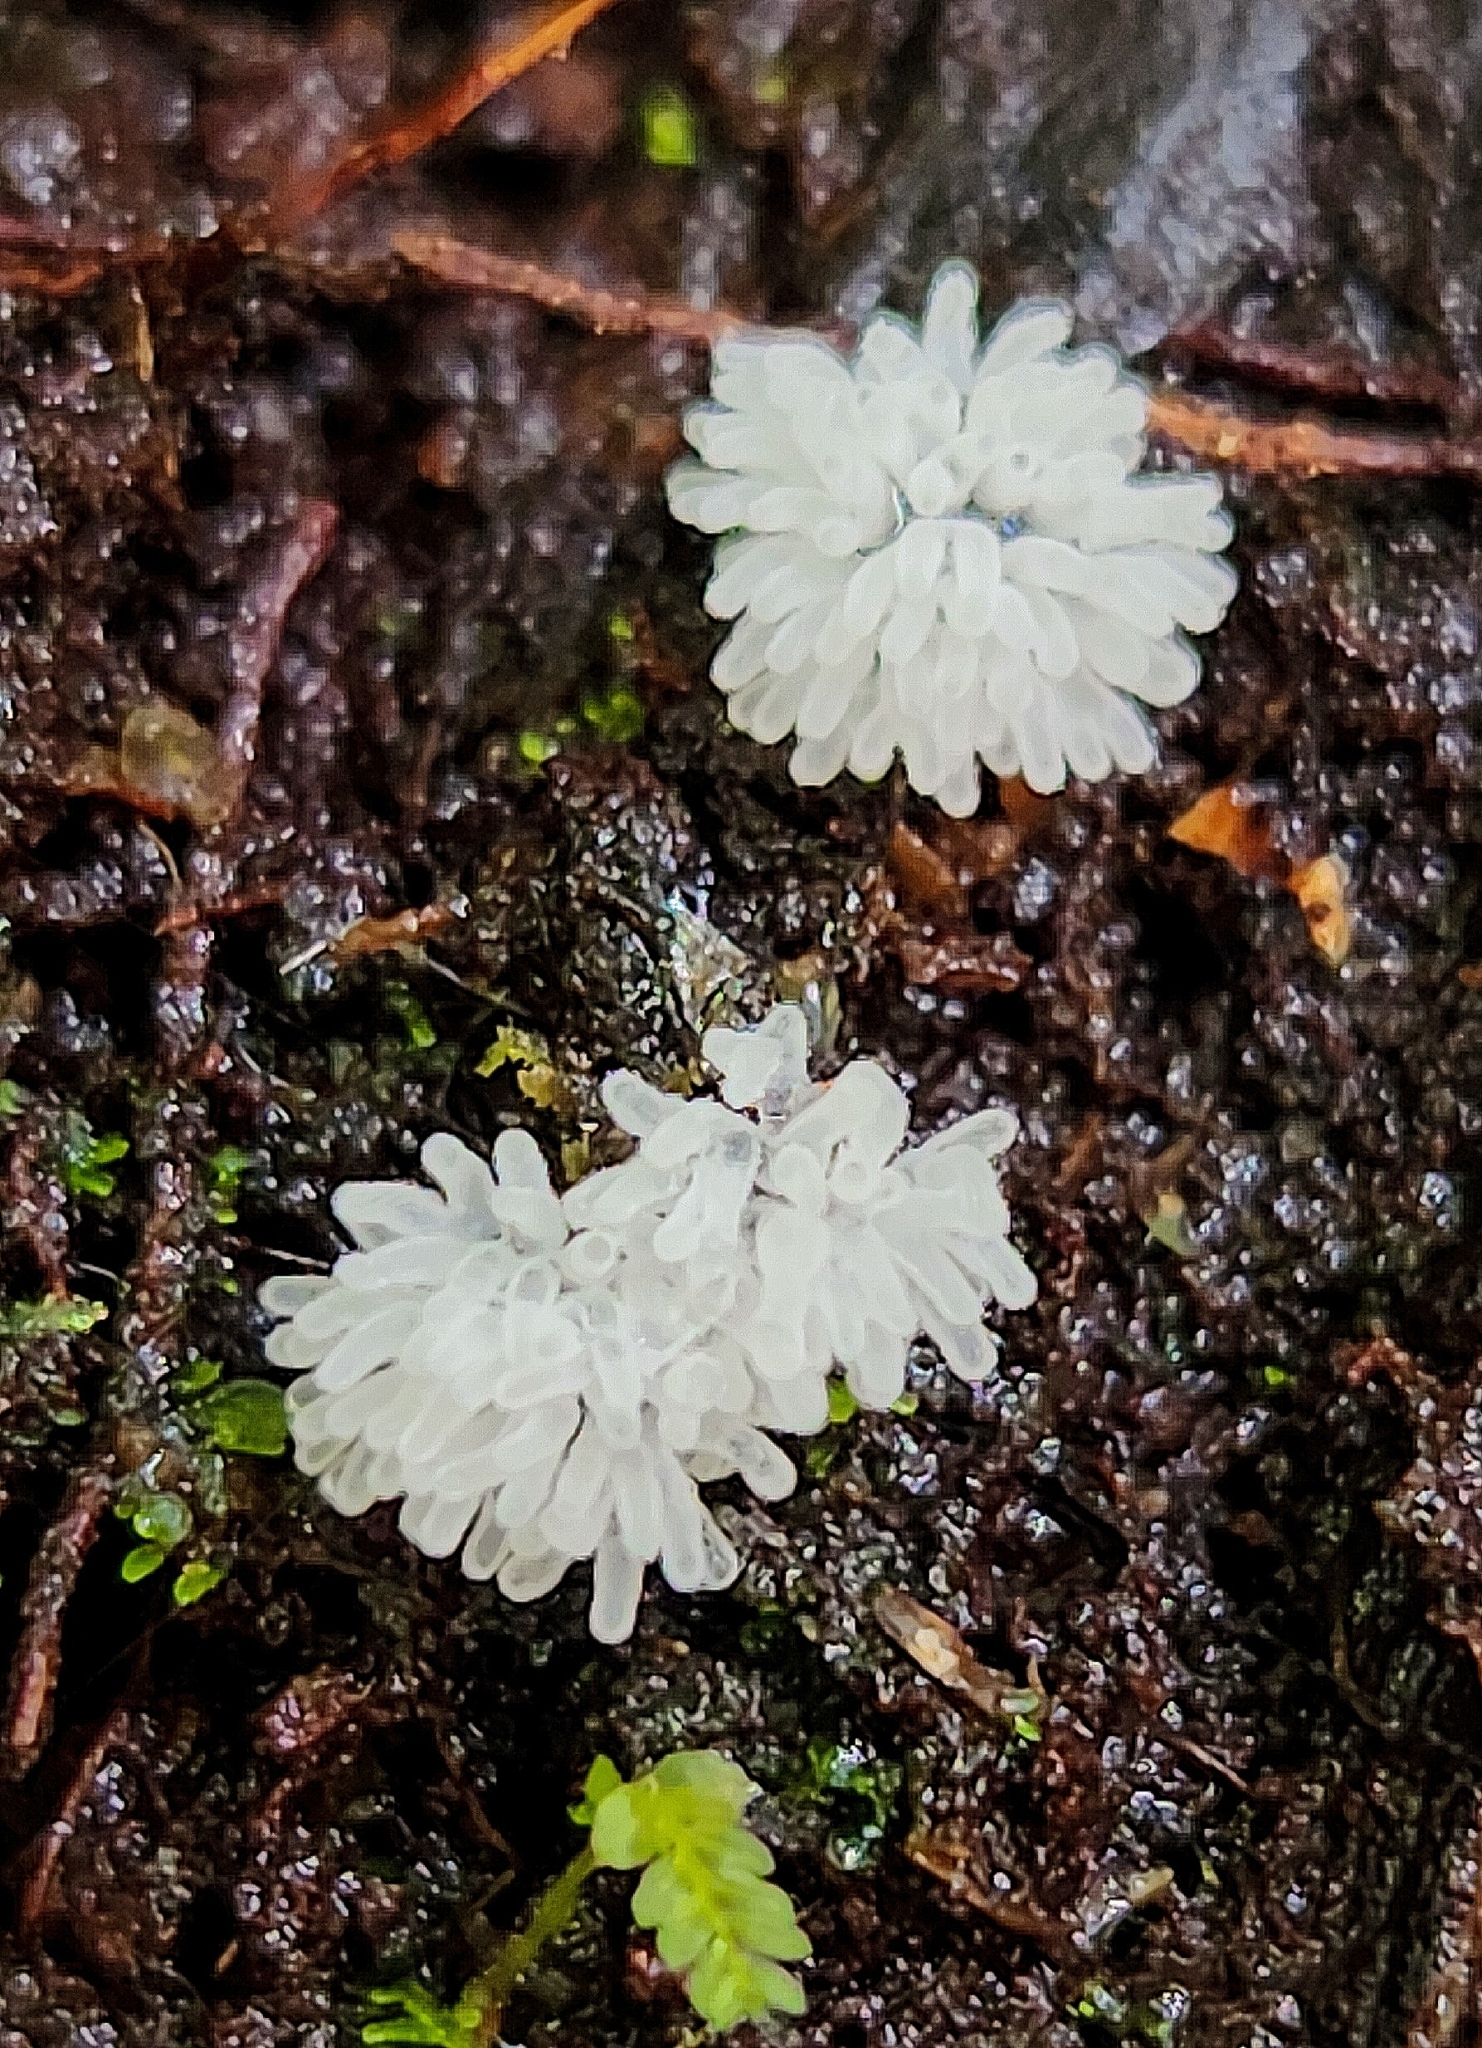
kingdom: Protozoa
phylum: Mycetozoa
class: Protosteliomycetes
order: Ceratiomyxales
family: Ceratiomyxaceae
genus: Ceratiomyxa
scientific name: Ceratiomyxa fruticulosa
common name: Honeycomb coral slime mold
